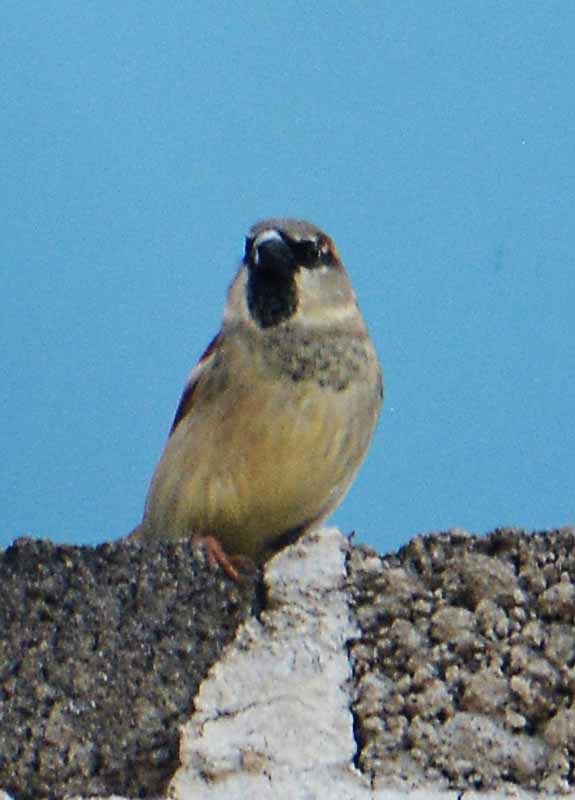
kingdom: Animalia
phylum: Chordata
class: Aves
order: Passeriformes
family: Passeridae
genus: Passer
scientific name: Passer domesticus
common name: House sparrow
